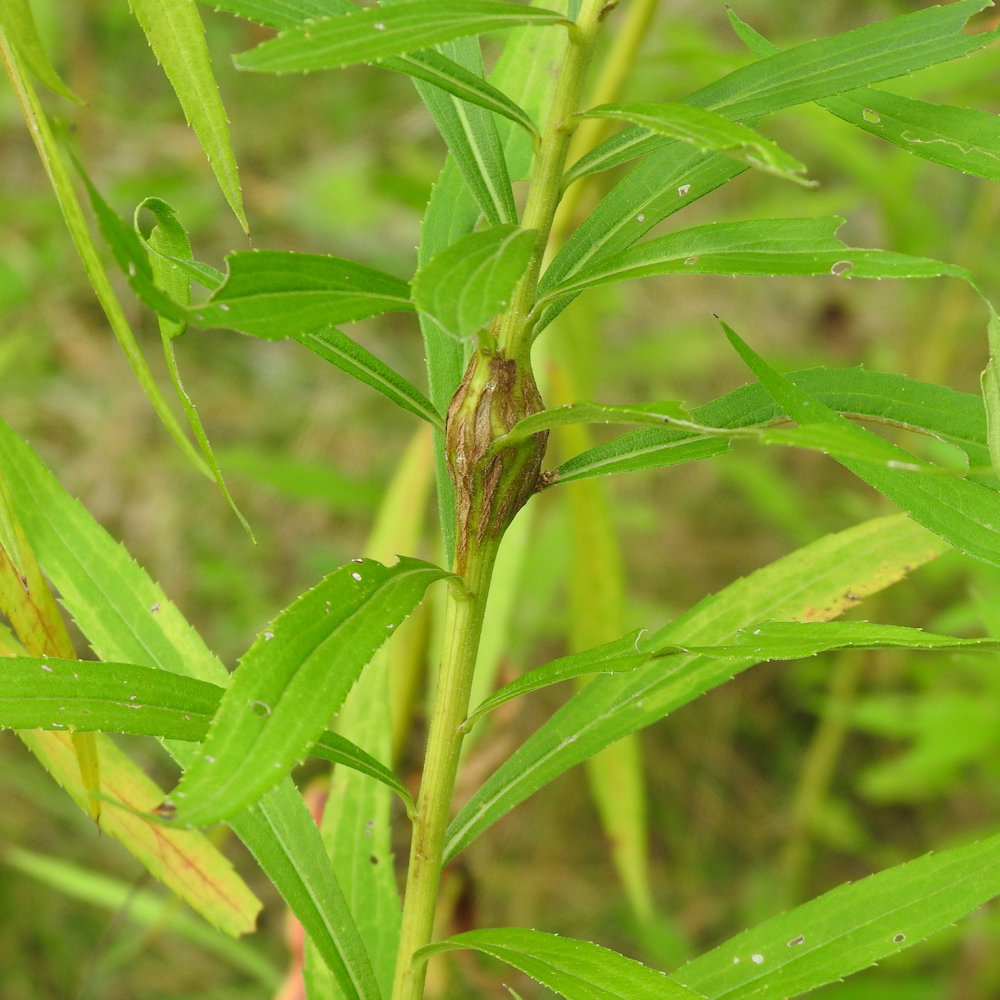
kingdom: Animalia
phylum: Arthropoda
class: Insecta
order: Lepidoptera
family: Tortricidae
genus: Epiblema
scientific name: Epiblema scudderiana
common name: Goldenrod gall moth
